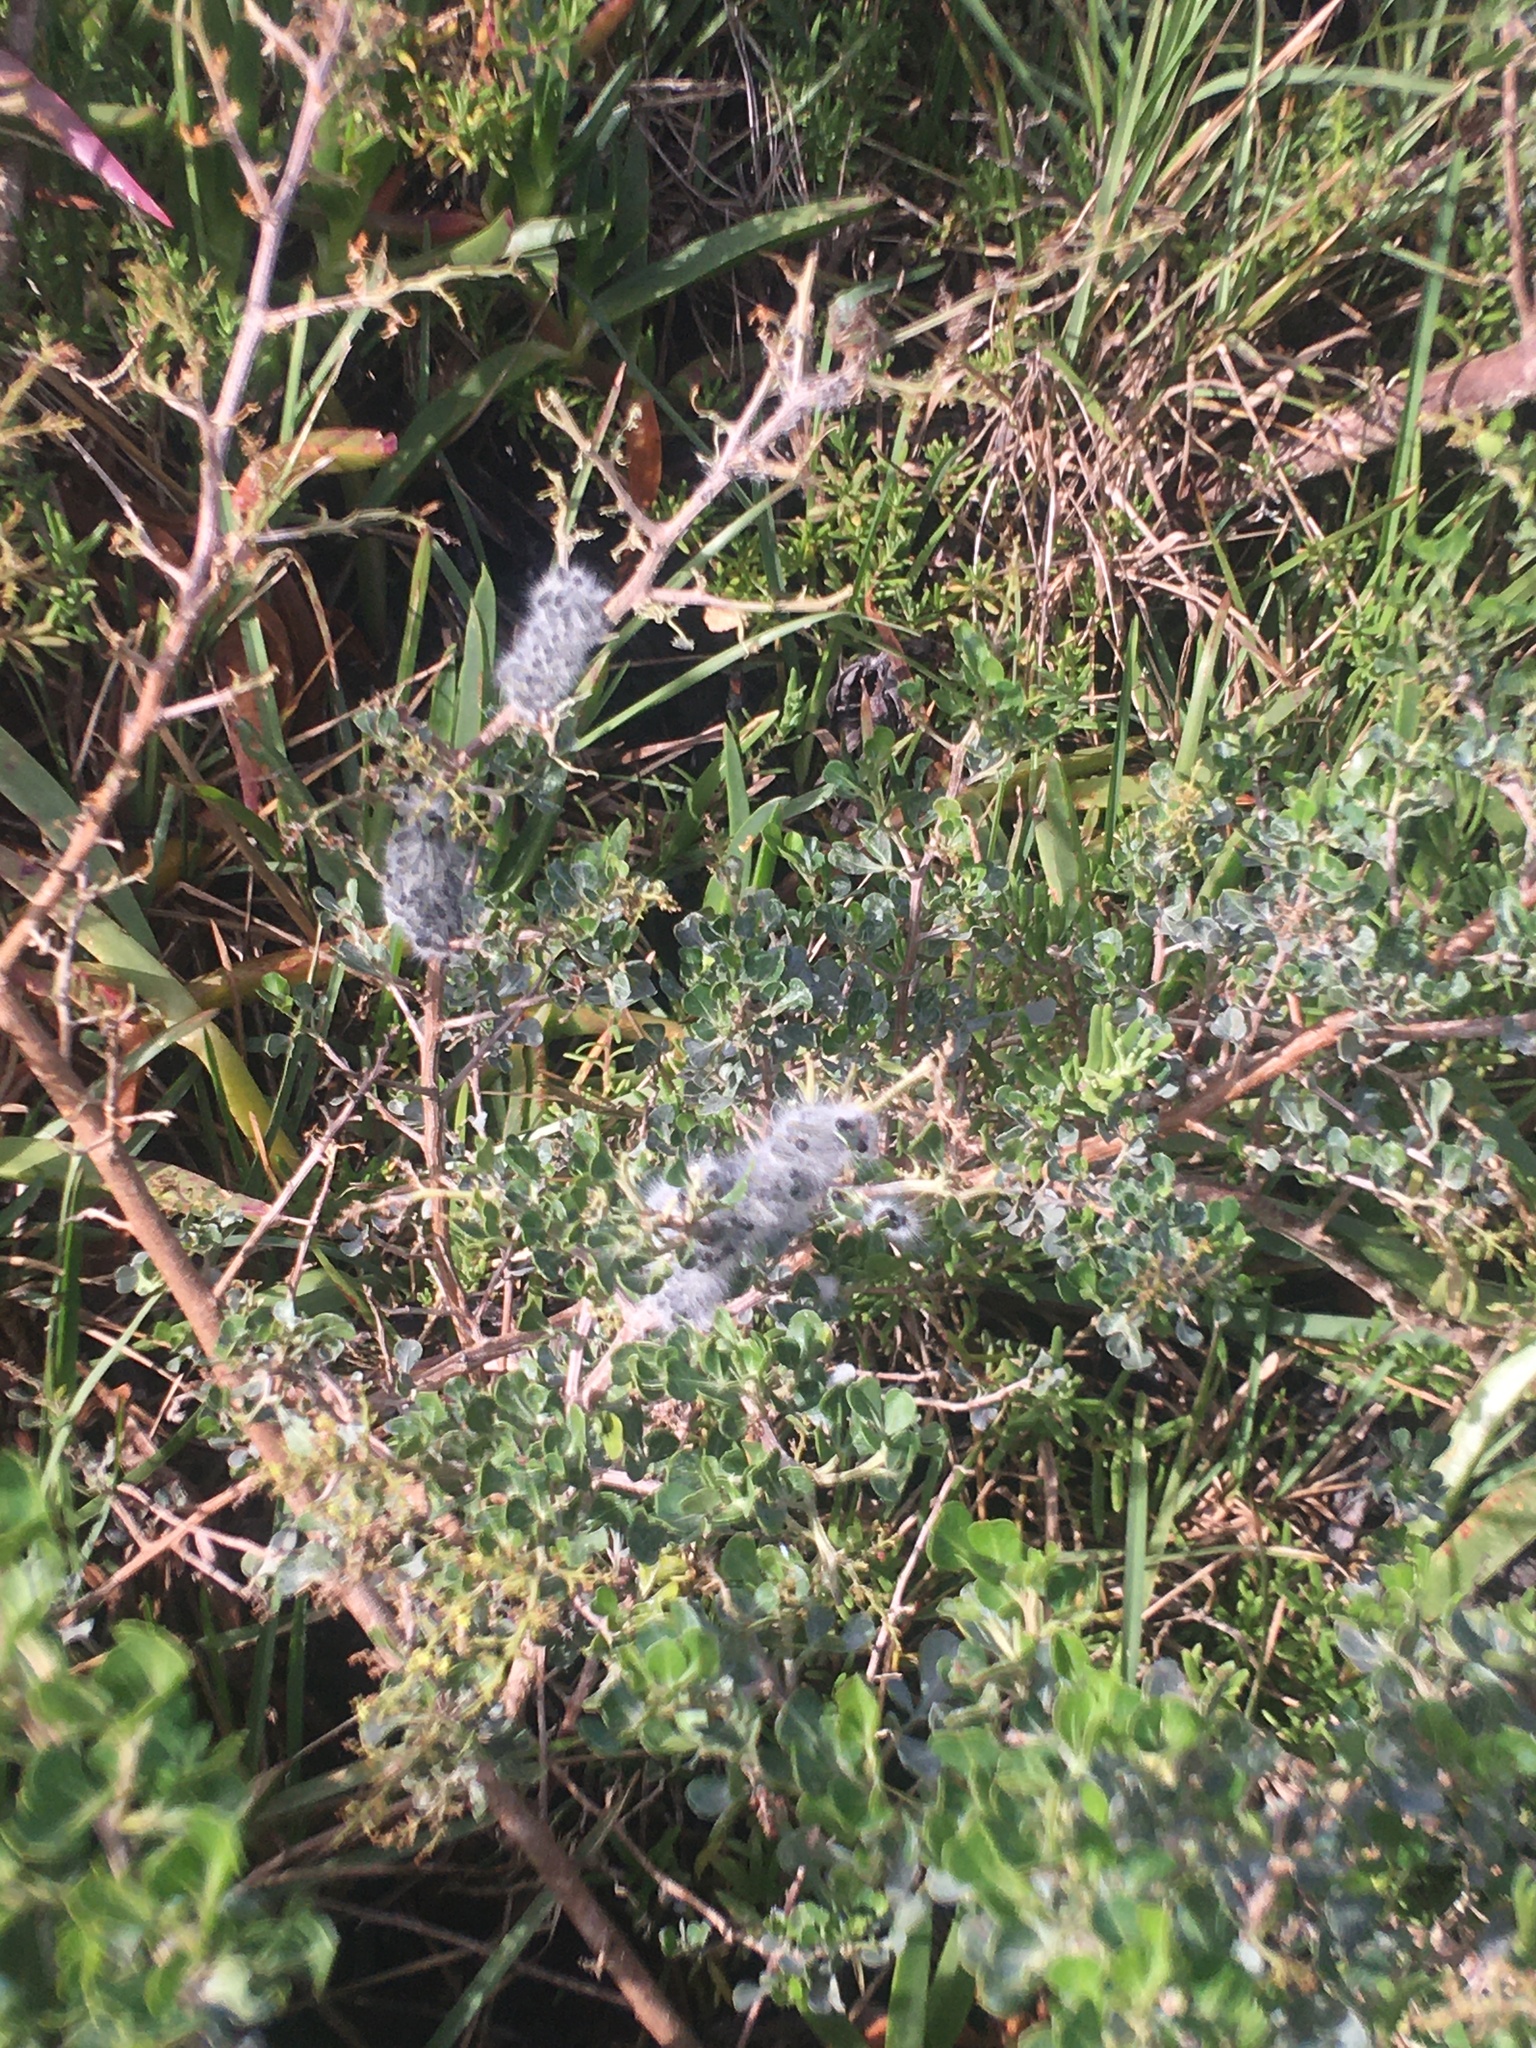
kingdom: Animalia
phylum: Arthropoda
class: Insecta
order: Lepidoptera
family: Lasiocampidae
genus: Bombycomorpha
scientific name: Bombycomorpha bifascia
